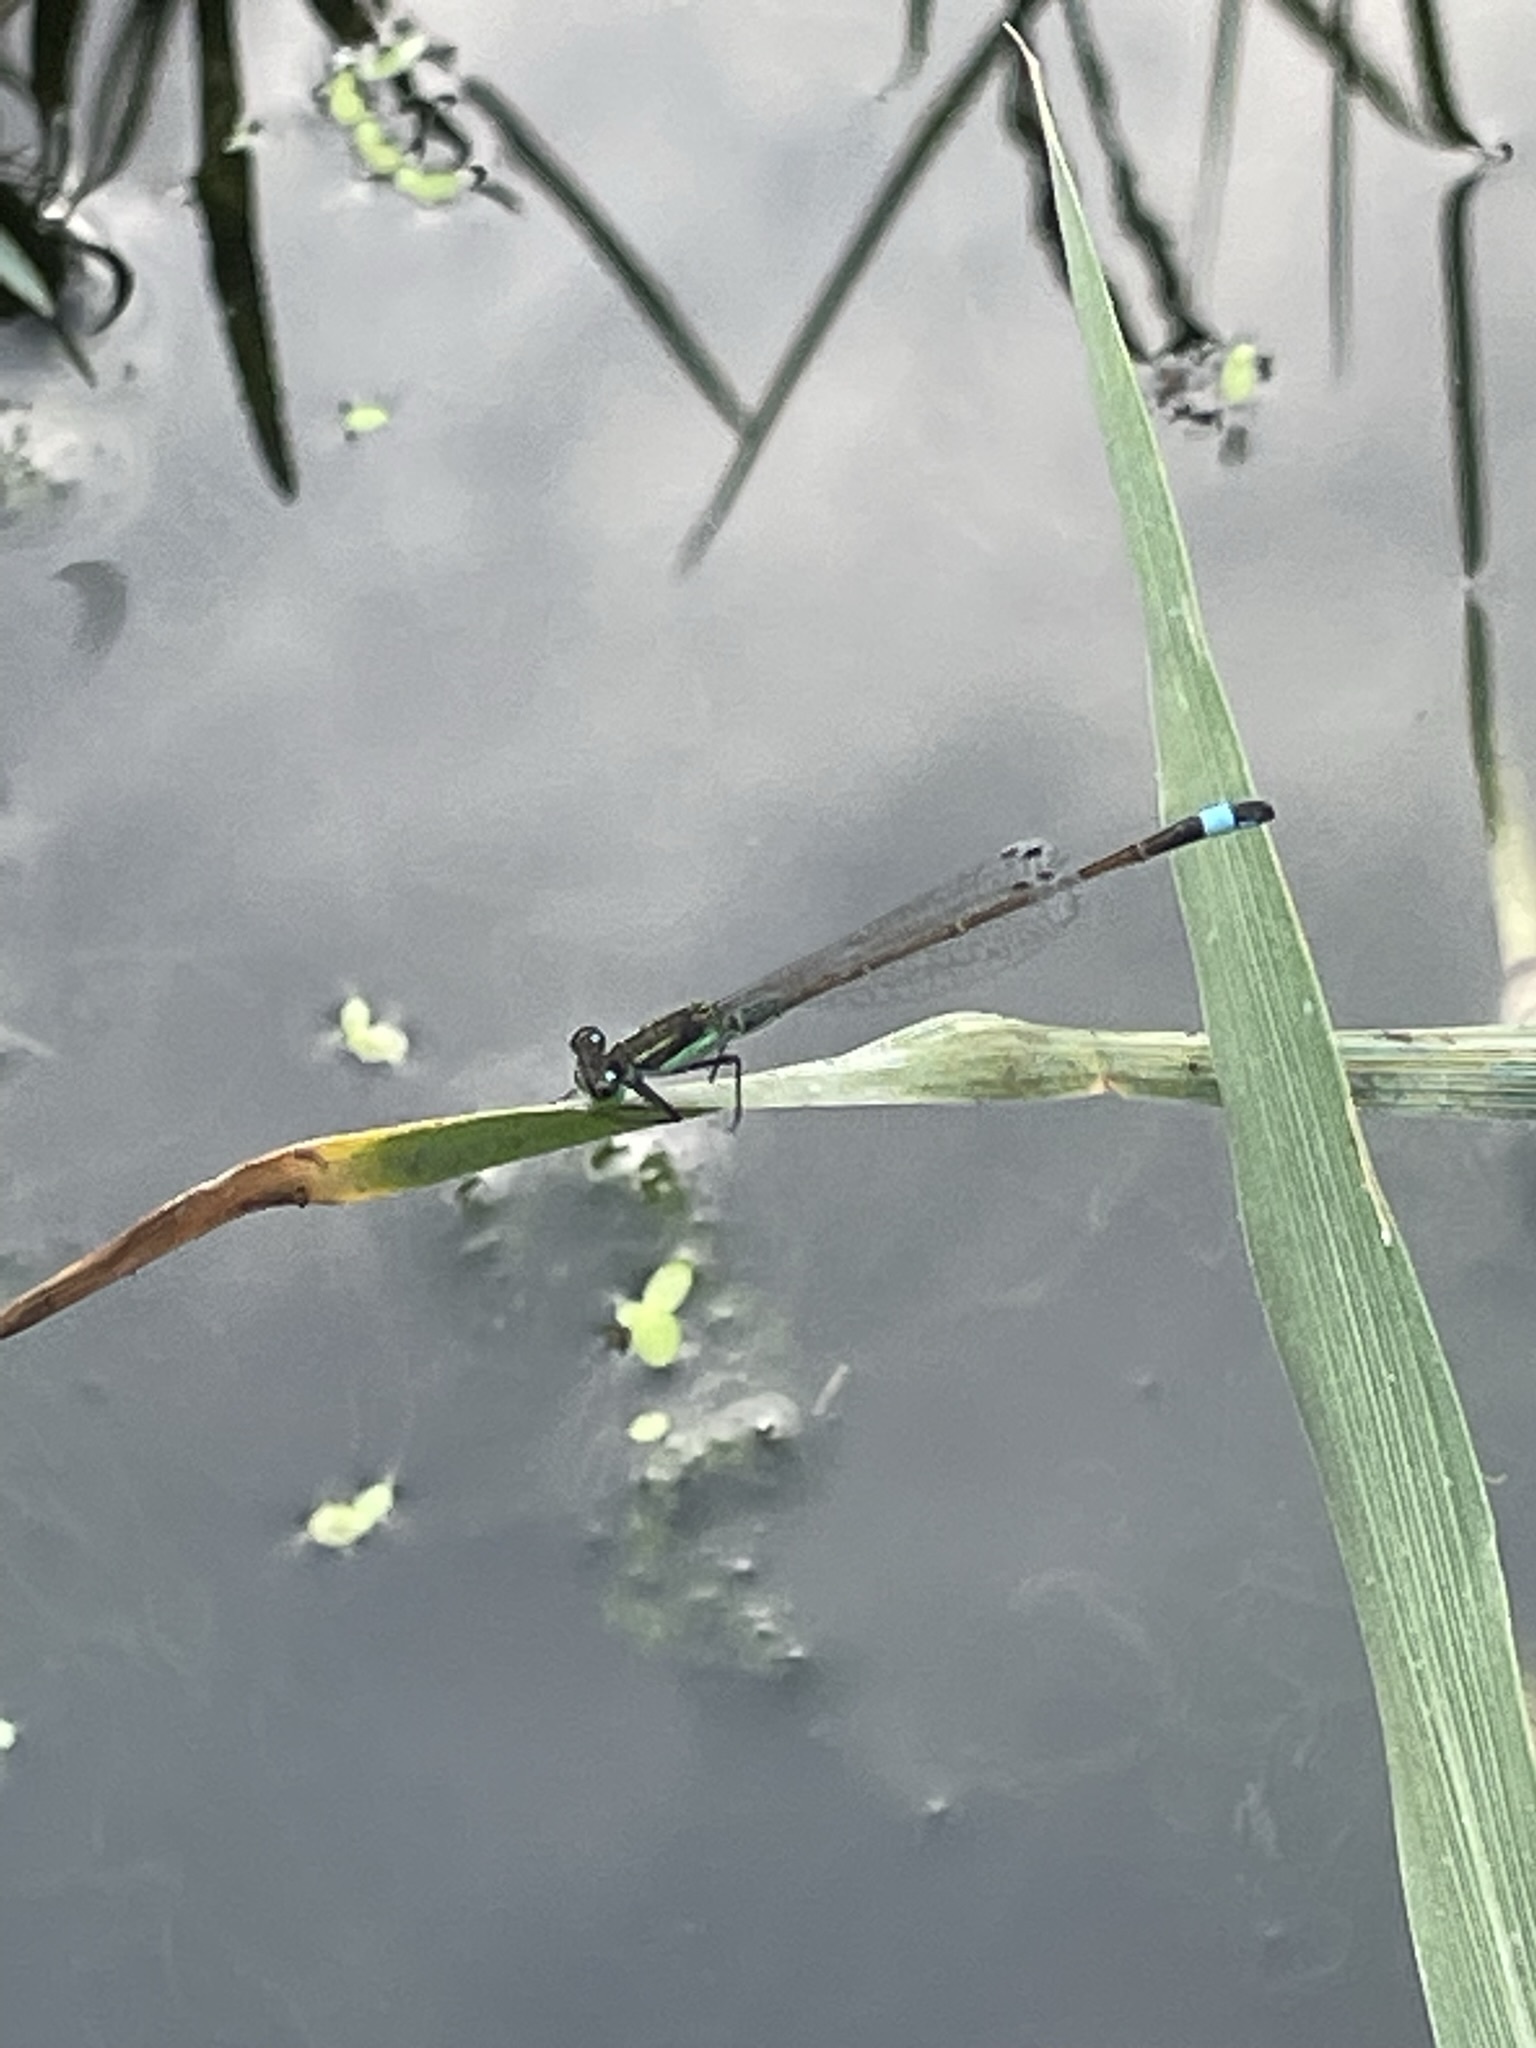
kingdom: Animalia
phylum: Arthropoda
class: Insecta
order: Odonata
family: Coenagrionidae
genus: Ischnura
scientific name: Ischnura ramburii
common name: Rambur's forktail
